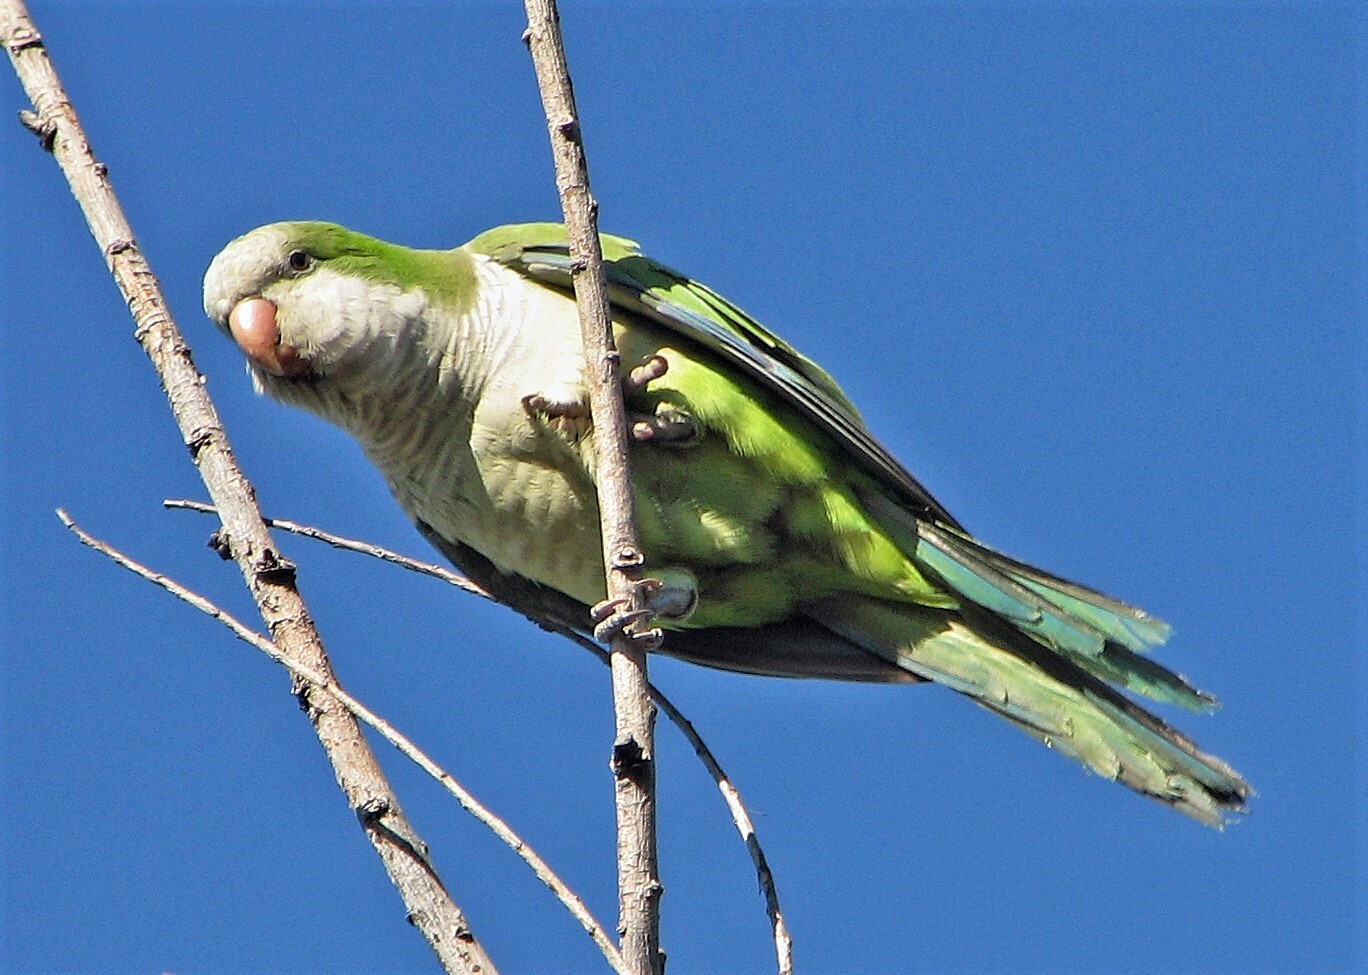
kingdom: Animalia
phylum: Chordata
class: Aves
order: Psittaciformes
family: Psittacidae
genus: Myiopsitta
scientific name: Myiopsitta monachus
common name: Monk parakeet
